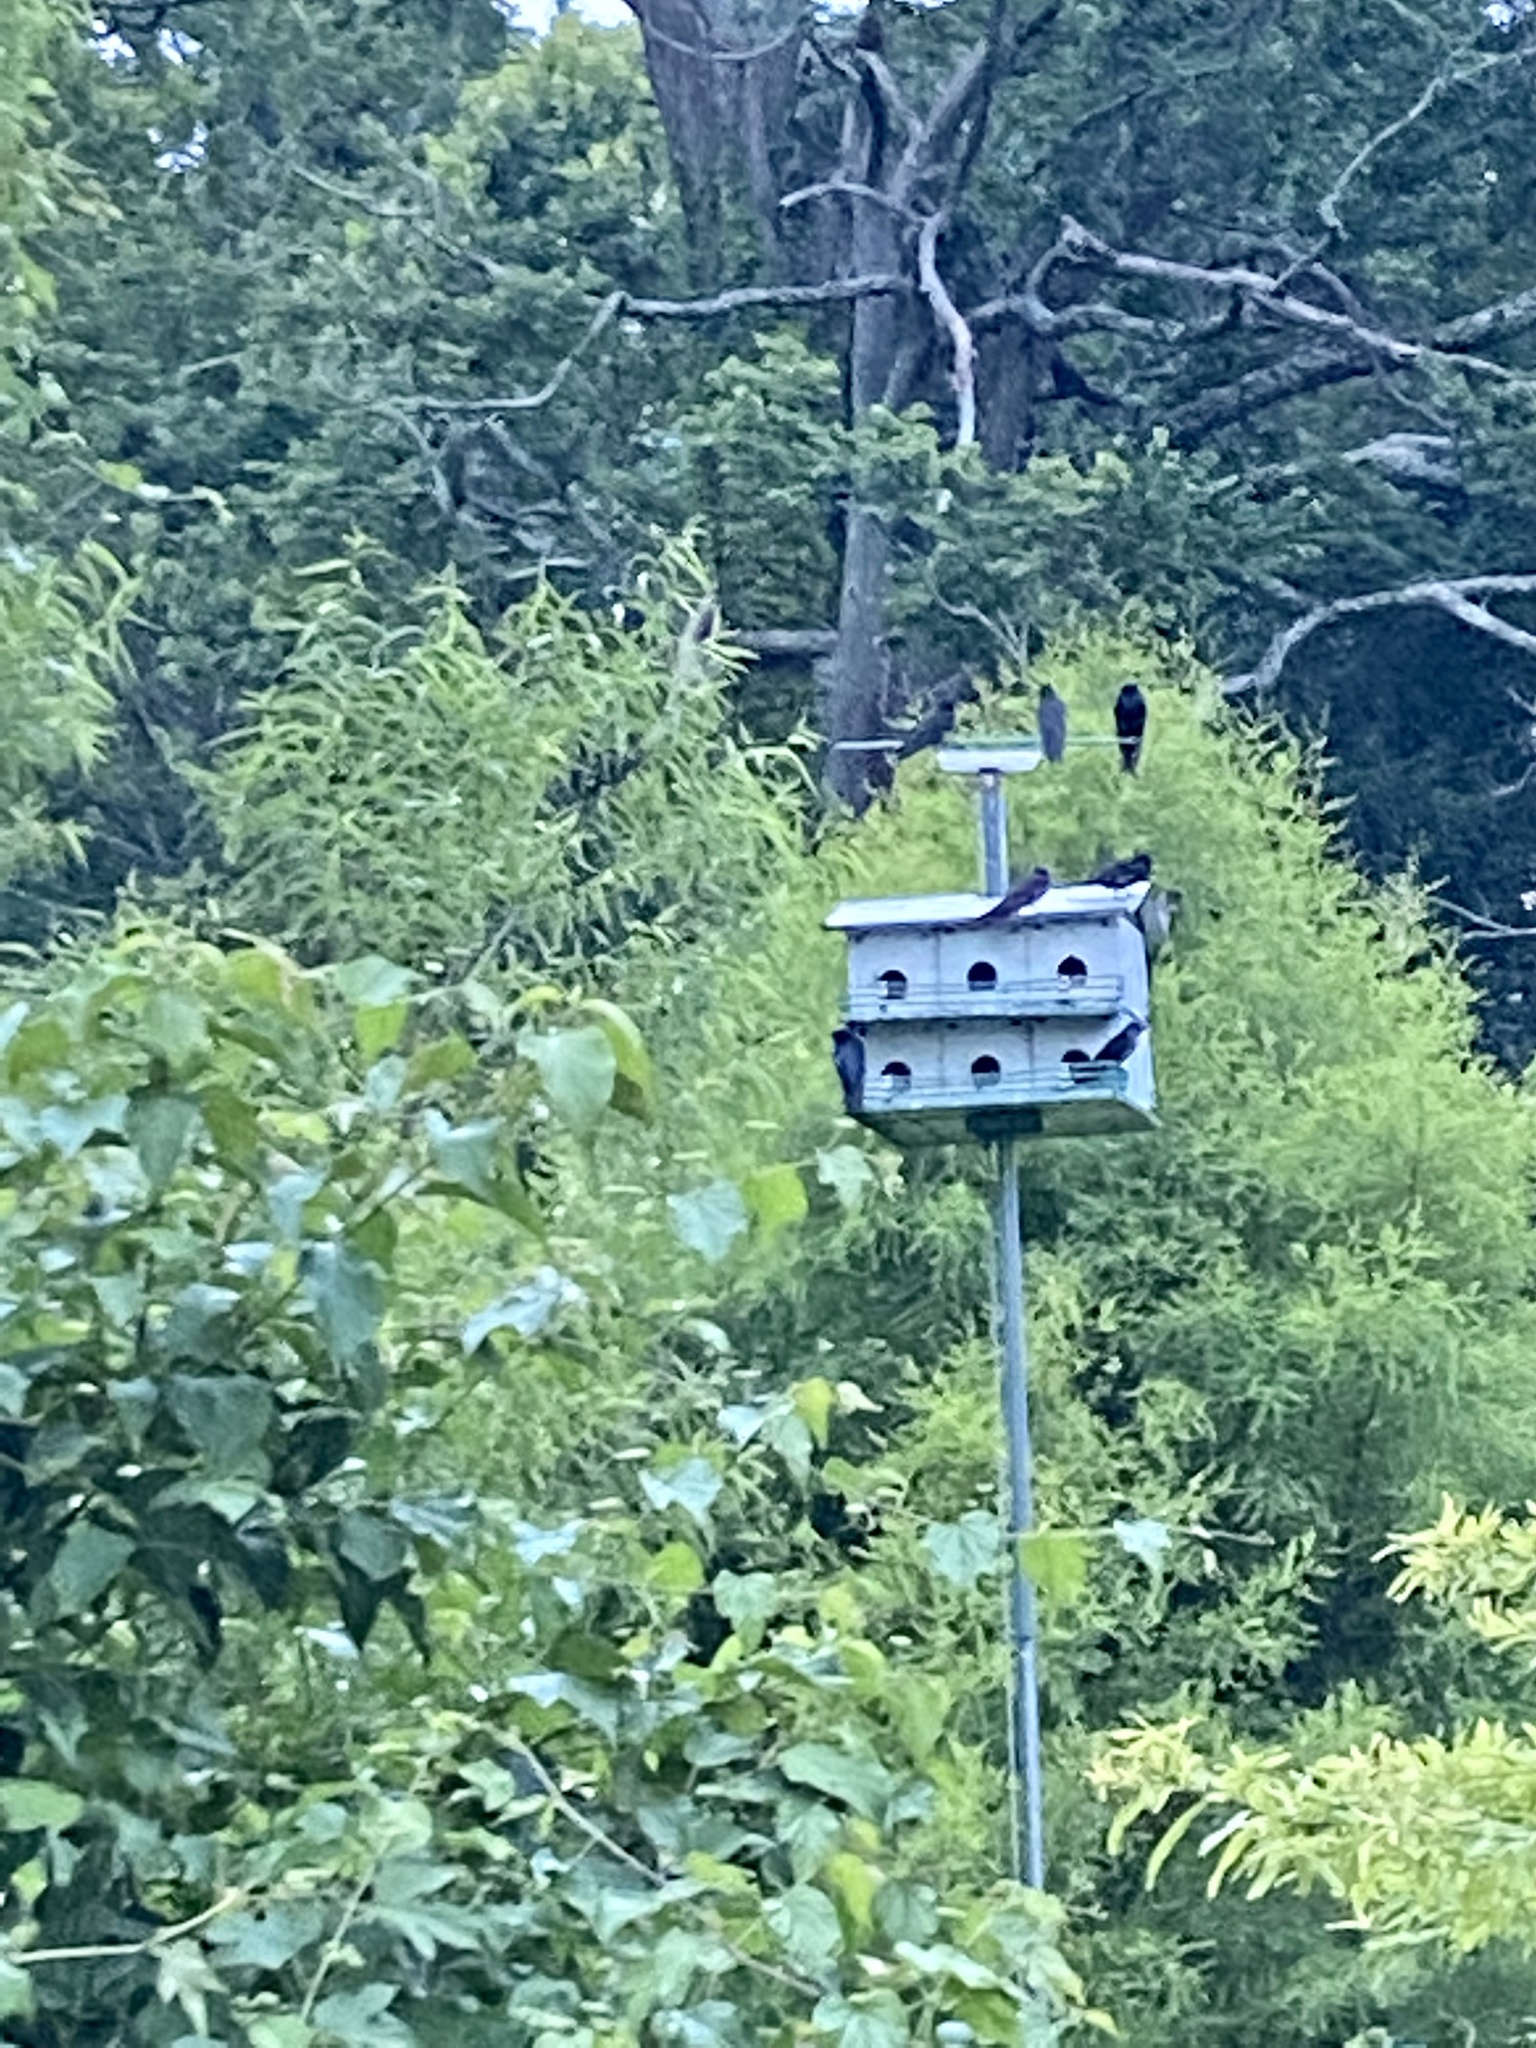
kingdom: Animalia
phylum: Chordata
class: Aves
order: Passeriformes
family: Hirundinidae
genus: Progne
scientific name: Progne subis
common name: Purple martin
